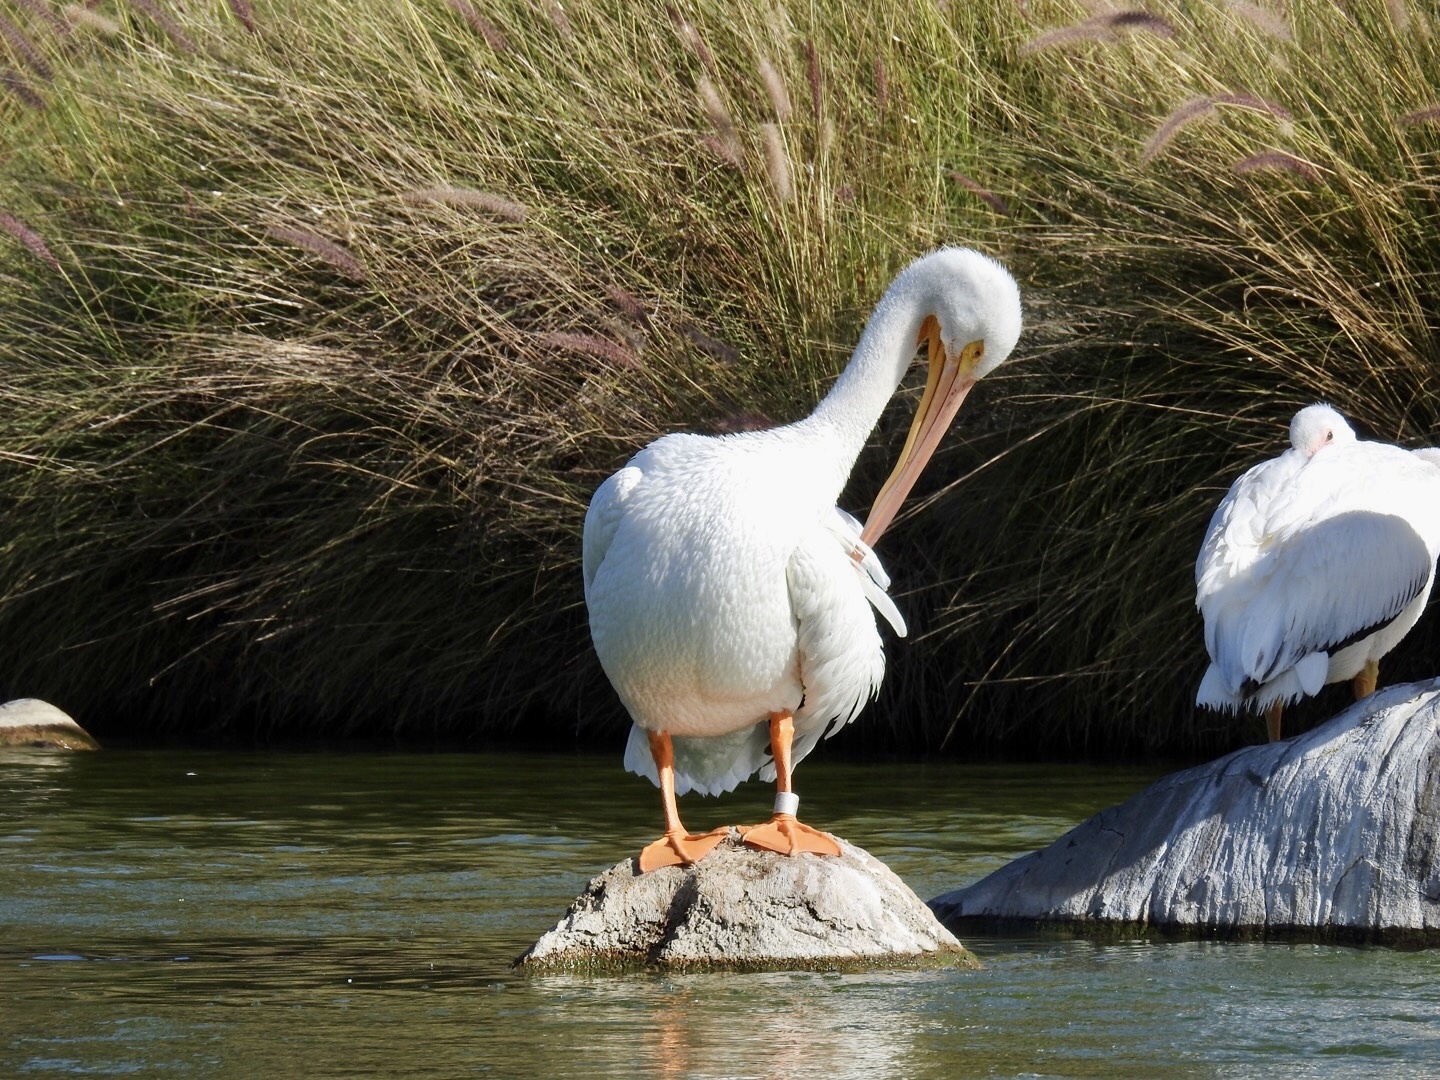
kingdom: Animalia
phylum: Chordata
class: Aves
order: Pelecaniformes
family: Pelecanidae
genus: Pelecanus
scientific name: Pelecanus erythrorhynchos
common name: American white pelican
